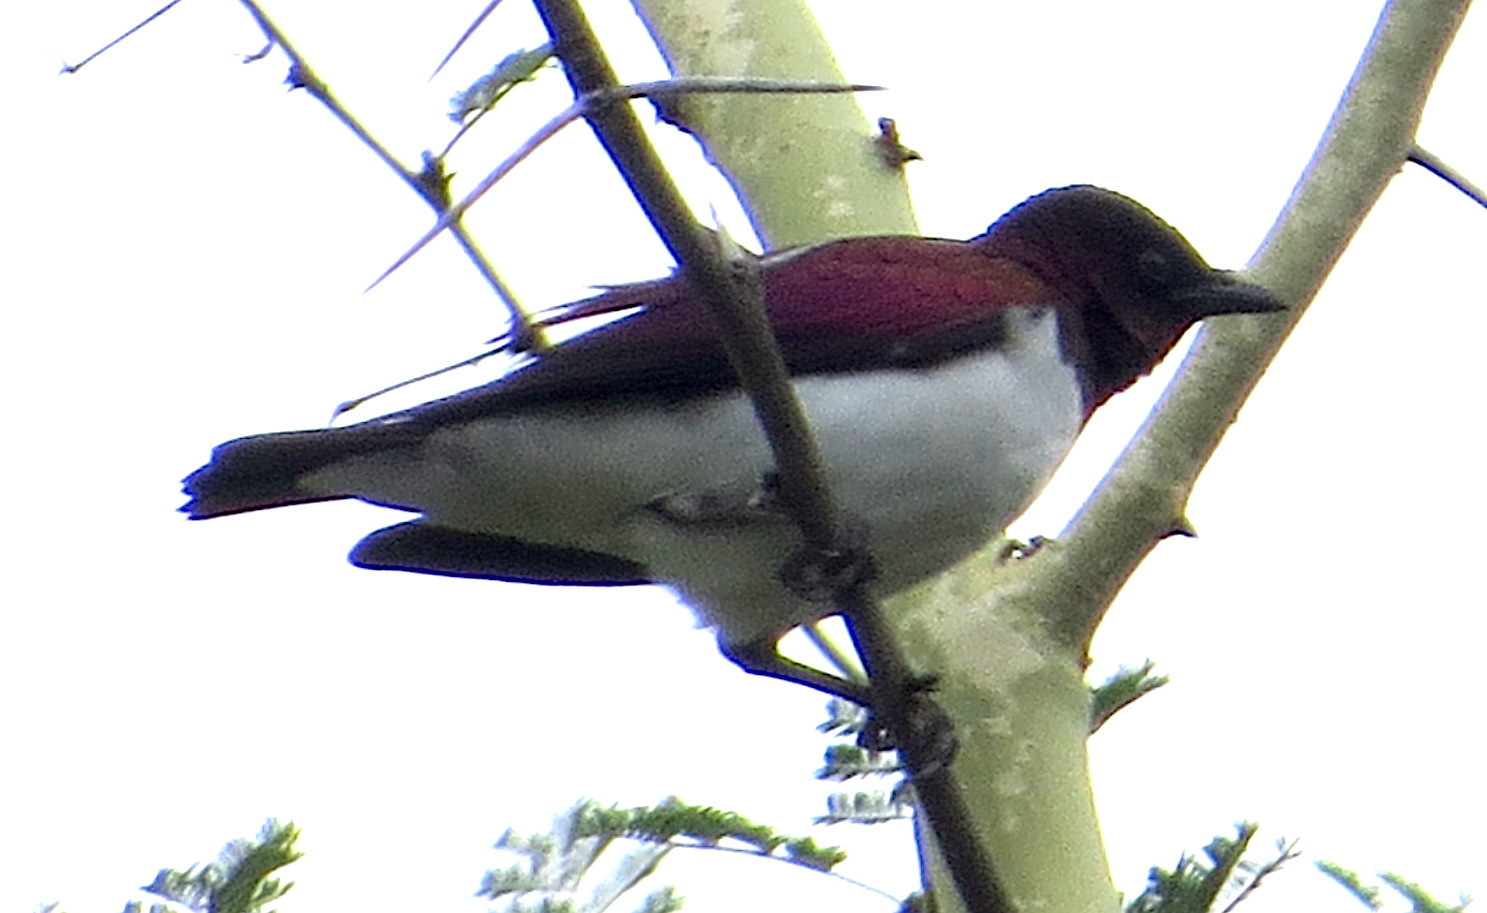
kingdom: Animalia
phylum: Chordata
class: Aves
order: Passeriformes
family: Sturnidae
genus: Cinnyricinclus
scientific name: Cinnyricinclus leucogaster
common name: Violet-backed starling
